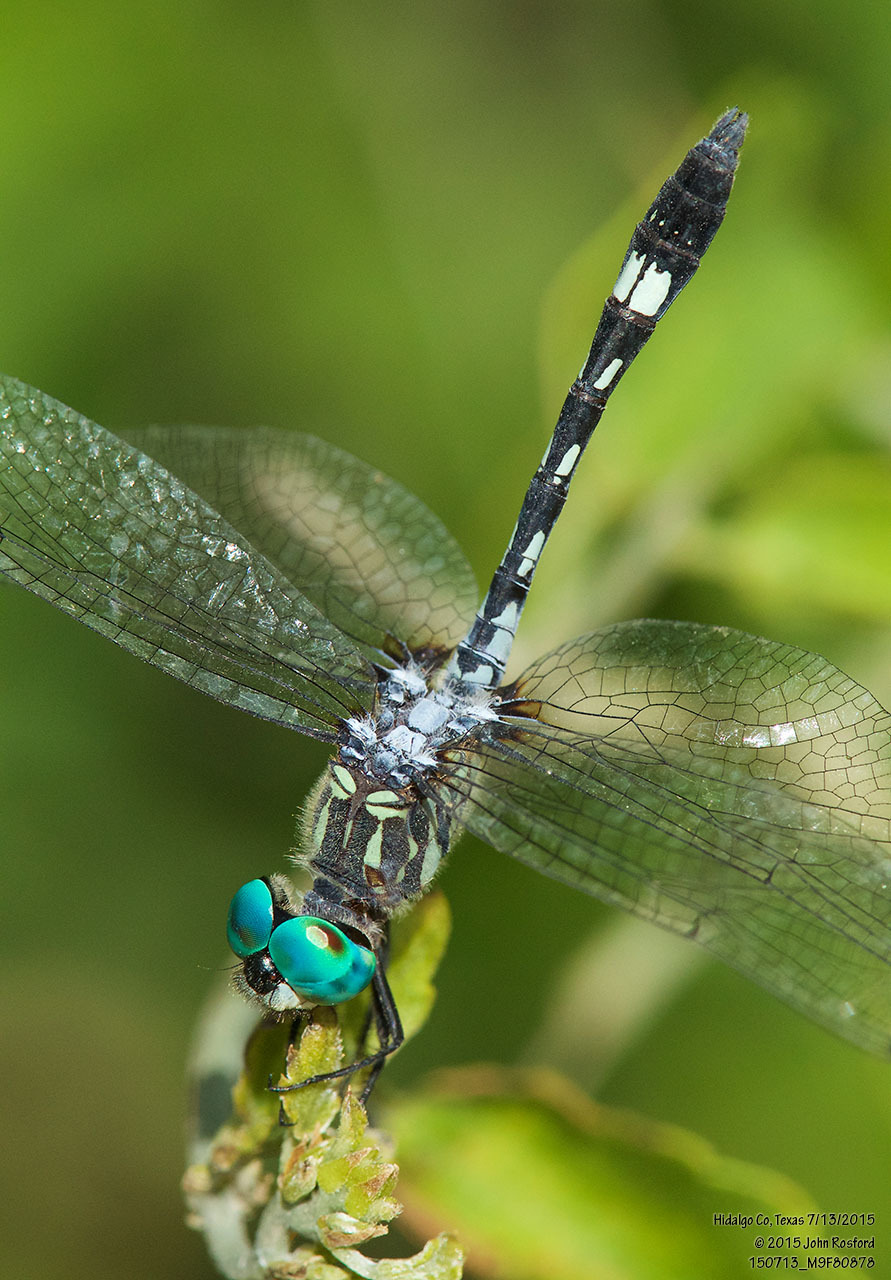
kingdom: Animalia
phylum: Arthropoda
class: Insecta
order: Odonata
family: Libellulidae
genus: Micrathyria
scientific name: Micrathyria hagenii
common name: Thornbush dasher
